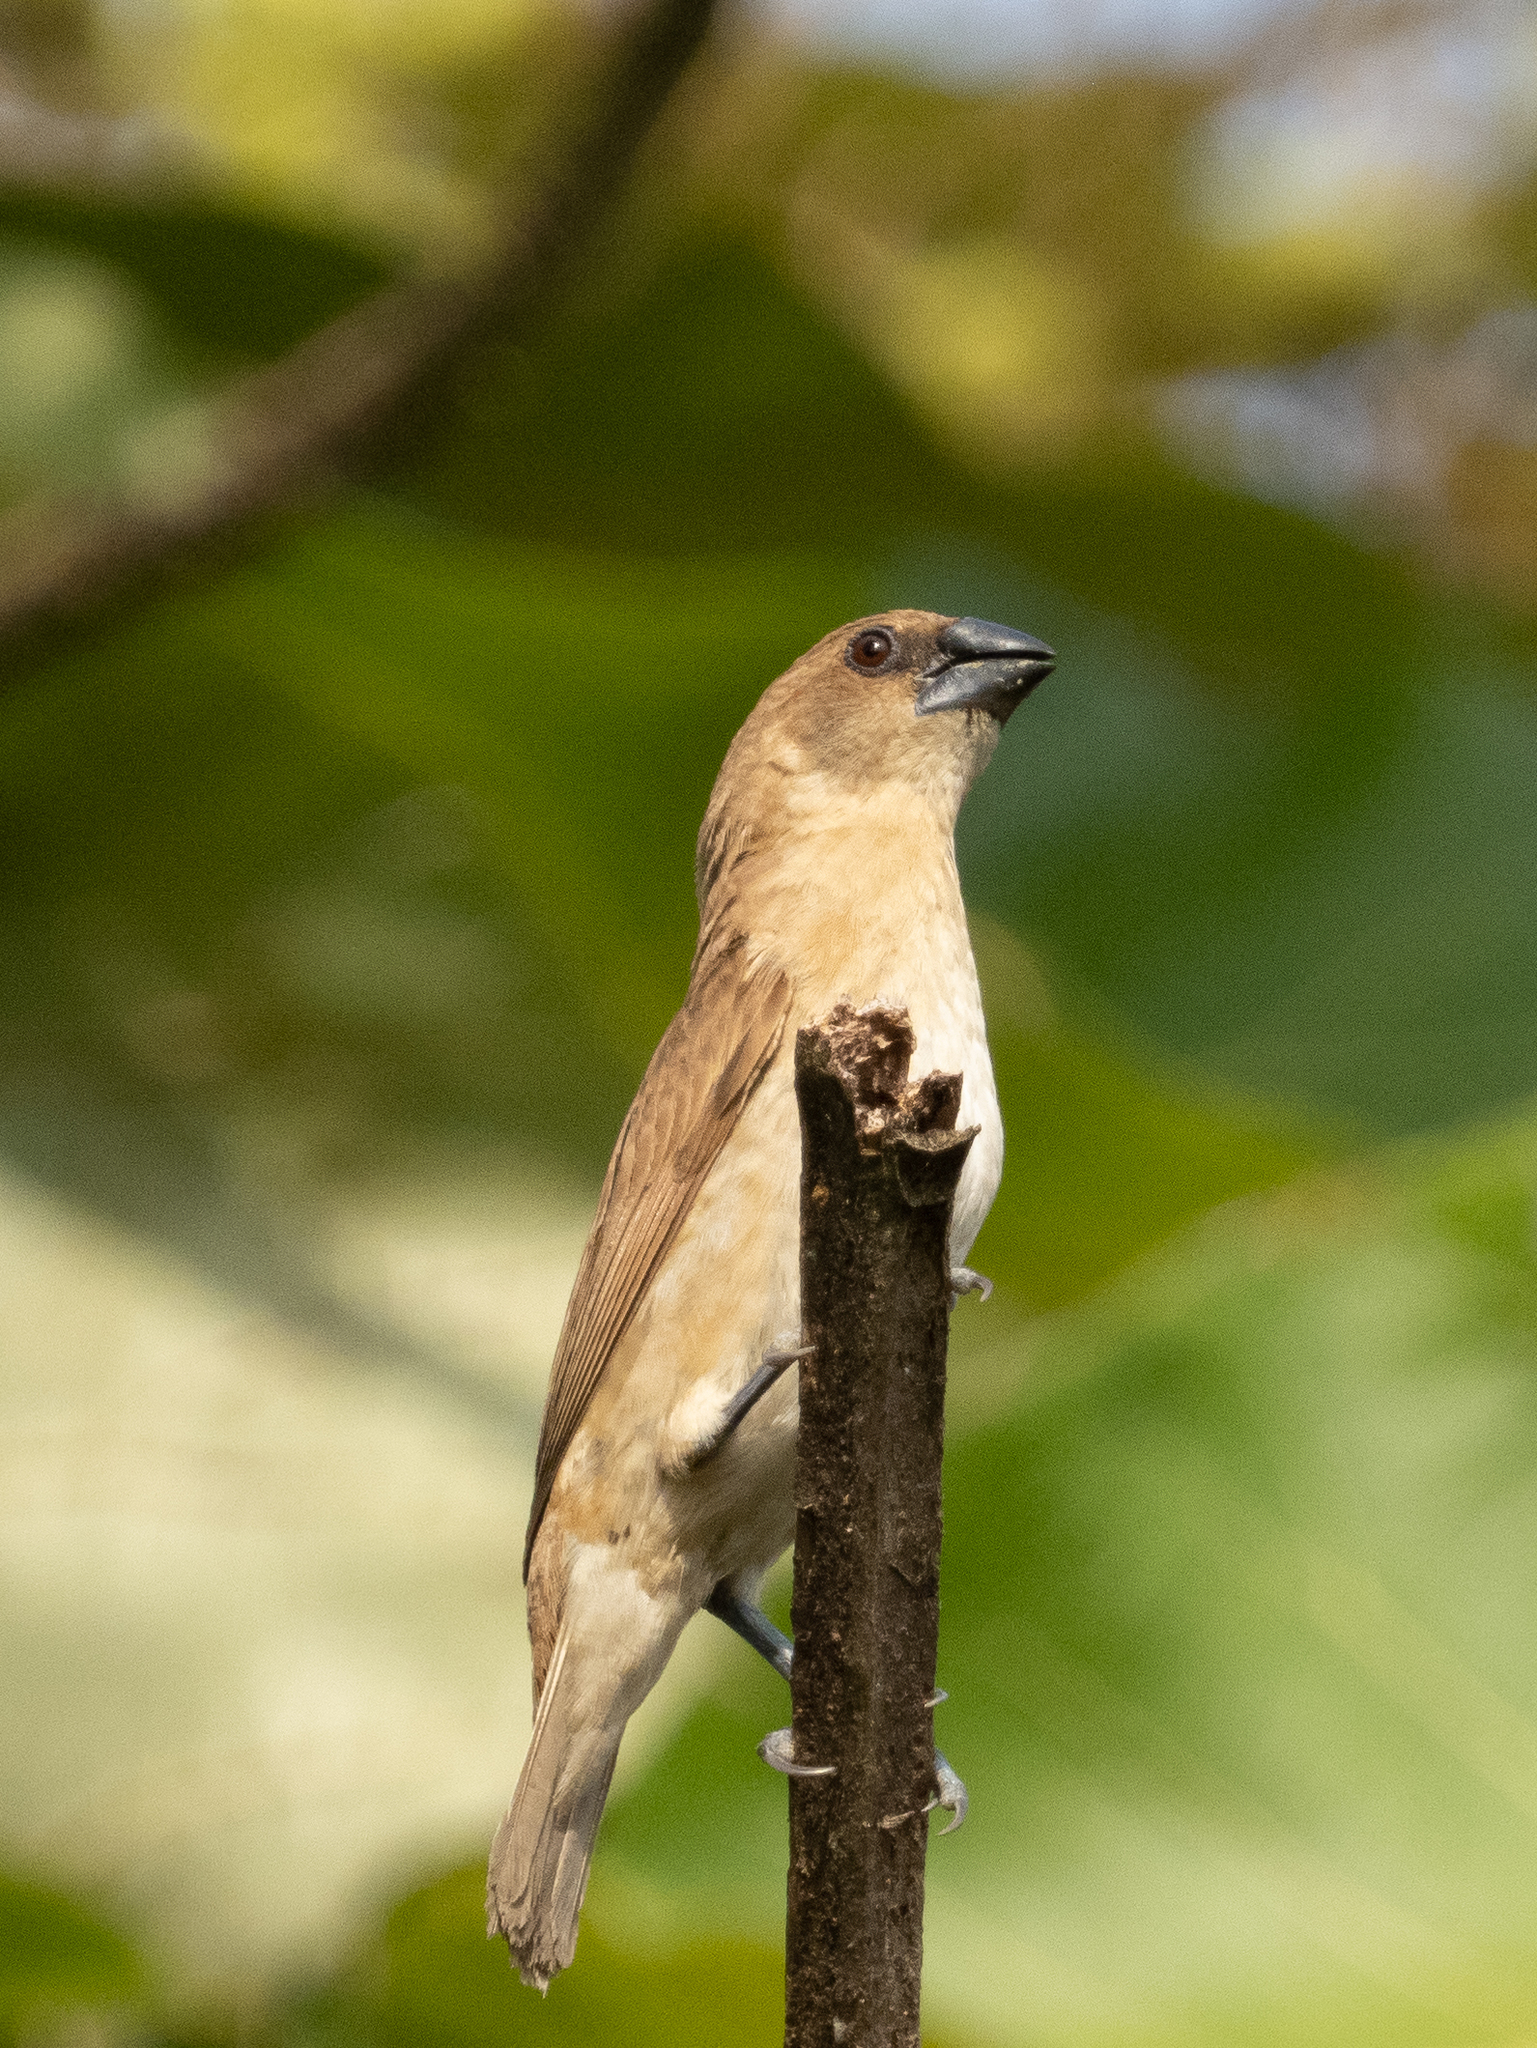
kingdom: Animalia
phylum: Chordata
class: Aves
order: Passeriformes
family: Estrildidae
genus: Lonchura
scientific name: Lonchura punctulata
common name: Scaly-breasted munia
